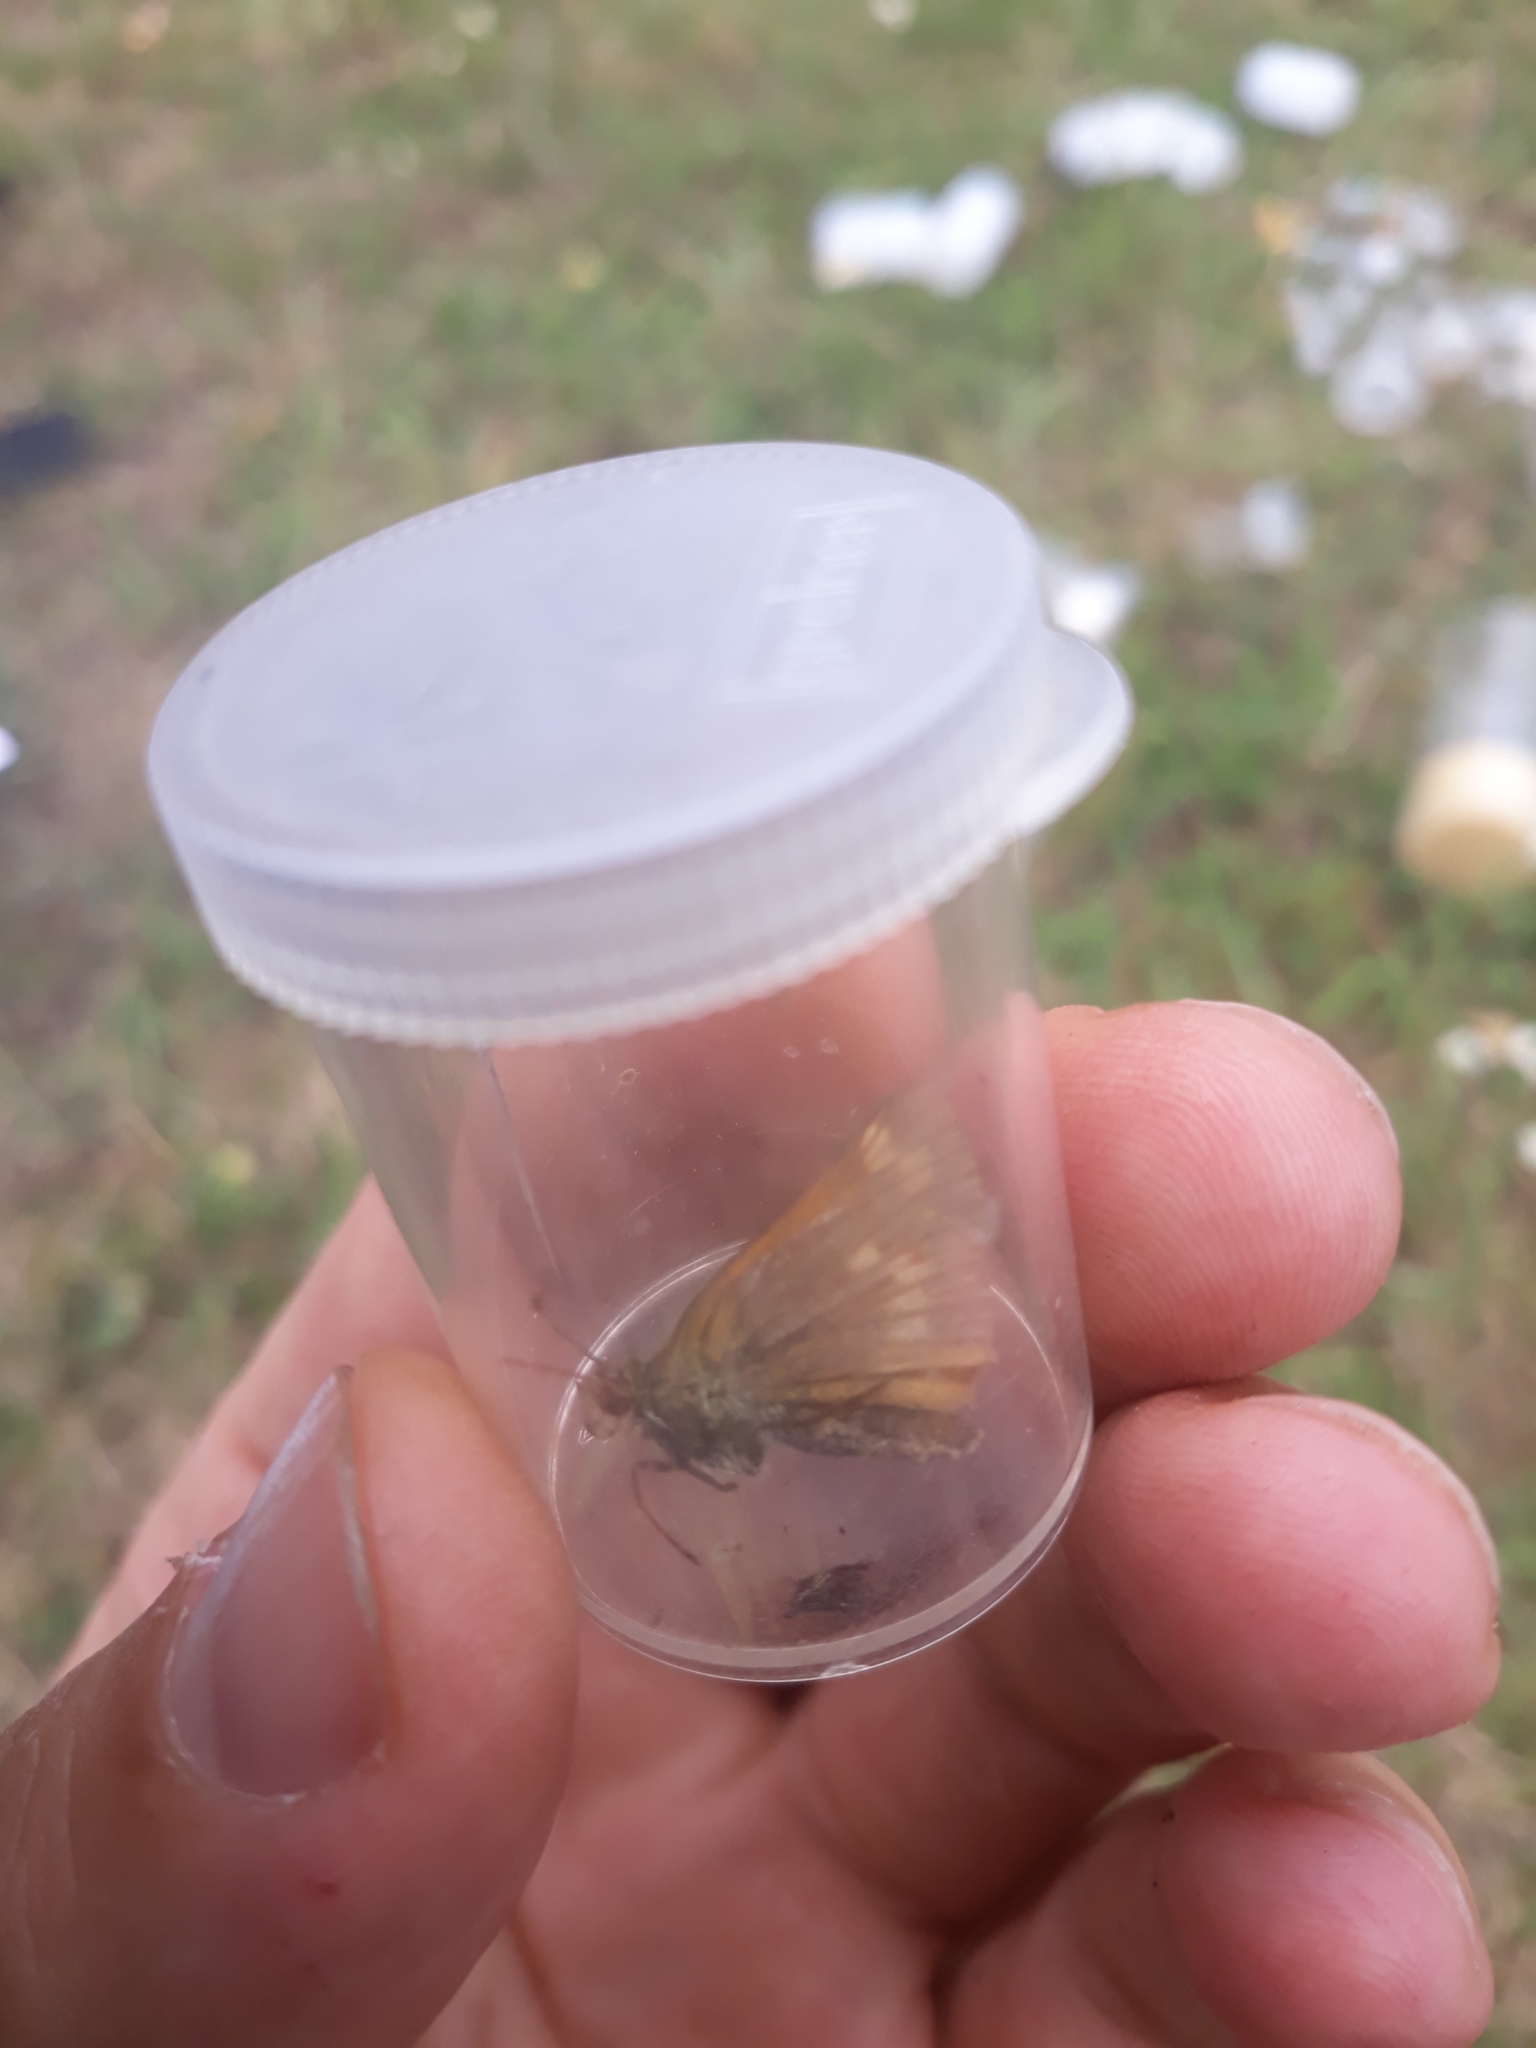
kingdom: Animalia
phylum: Arthropoda
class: Insecta
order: Lepidoptera
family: Hesperiidae
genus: Ochlodes
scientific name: Ochlodes venata
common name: Large skipper
